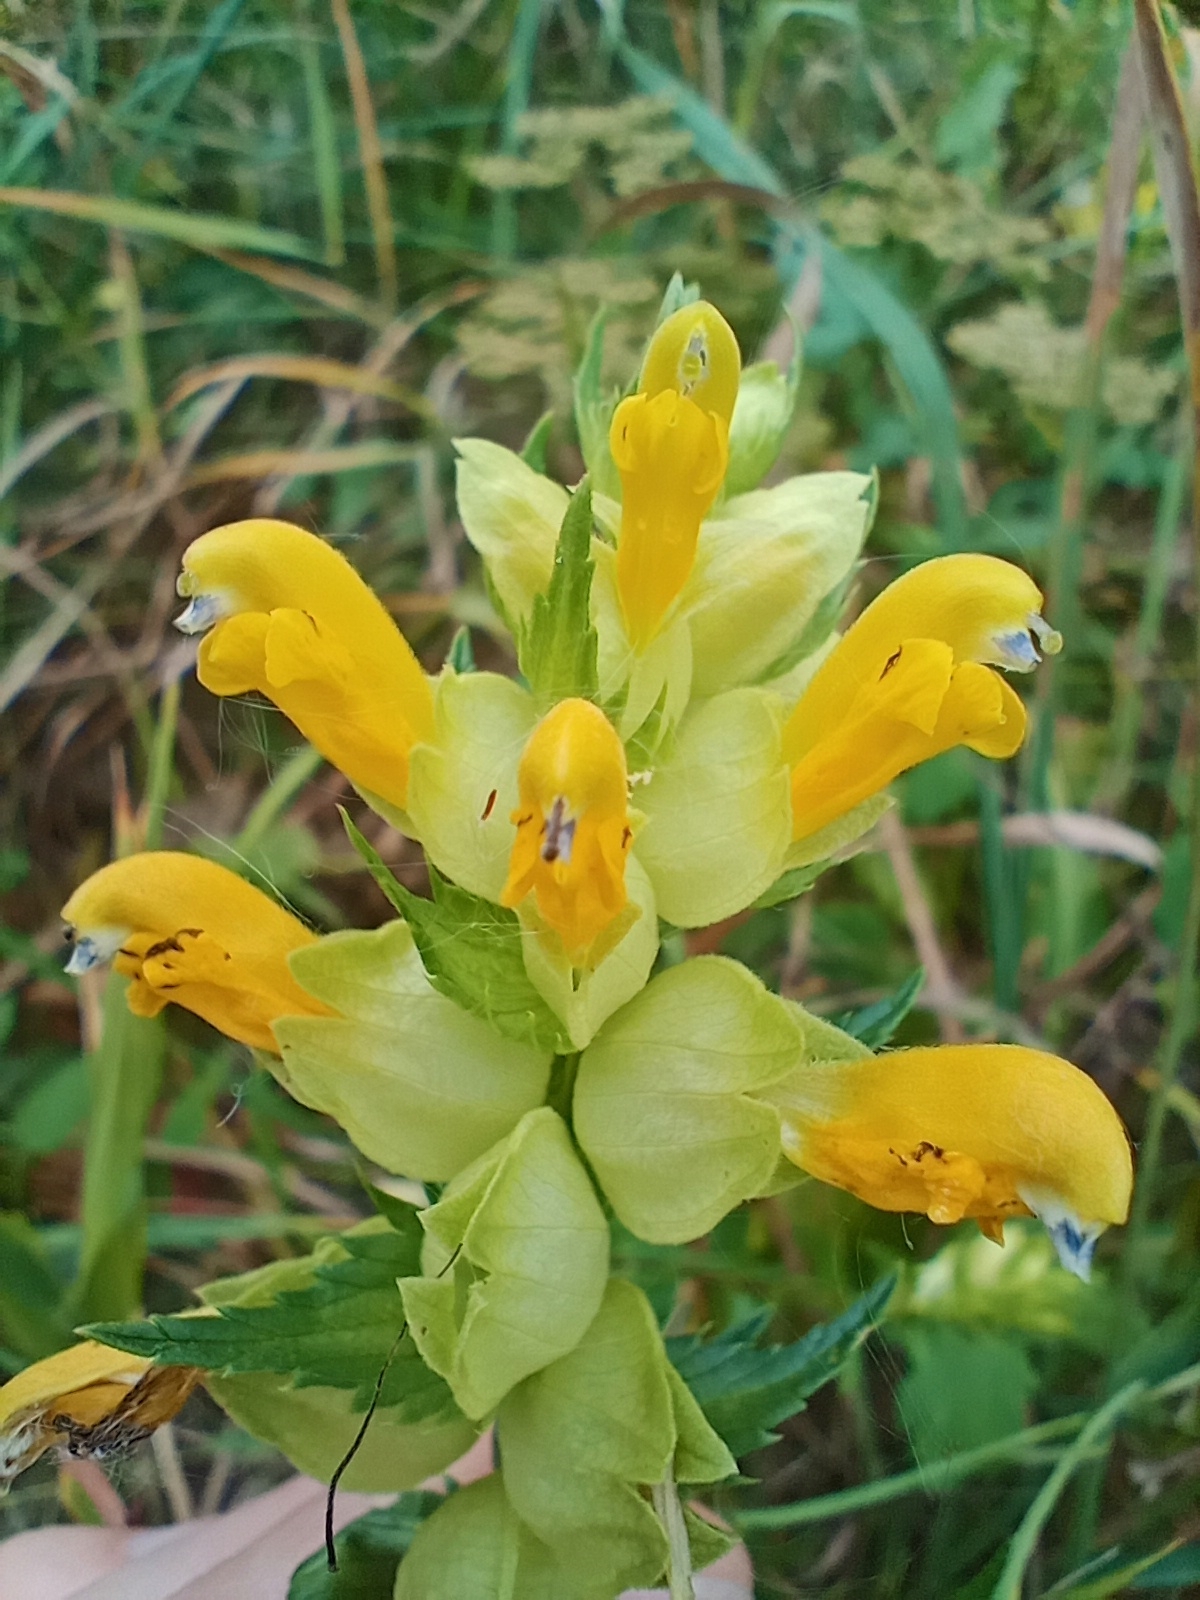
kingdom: Plantae
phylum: Tracheophyta
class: Magnoliopsida
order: Lamiales
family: Orobanchaceae
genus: Rhinanthus
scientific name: Rhinanthus serotinus
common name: Late-flowering yellow rattle
